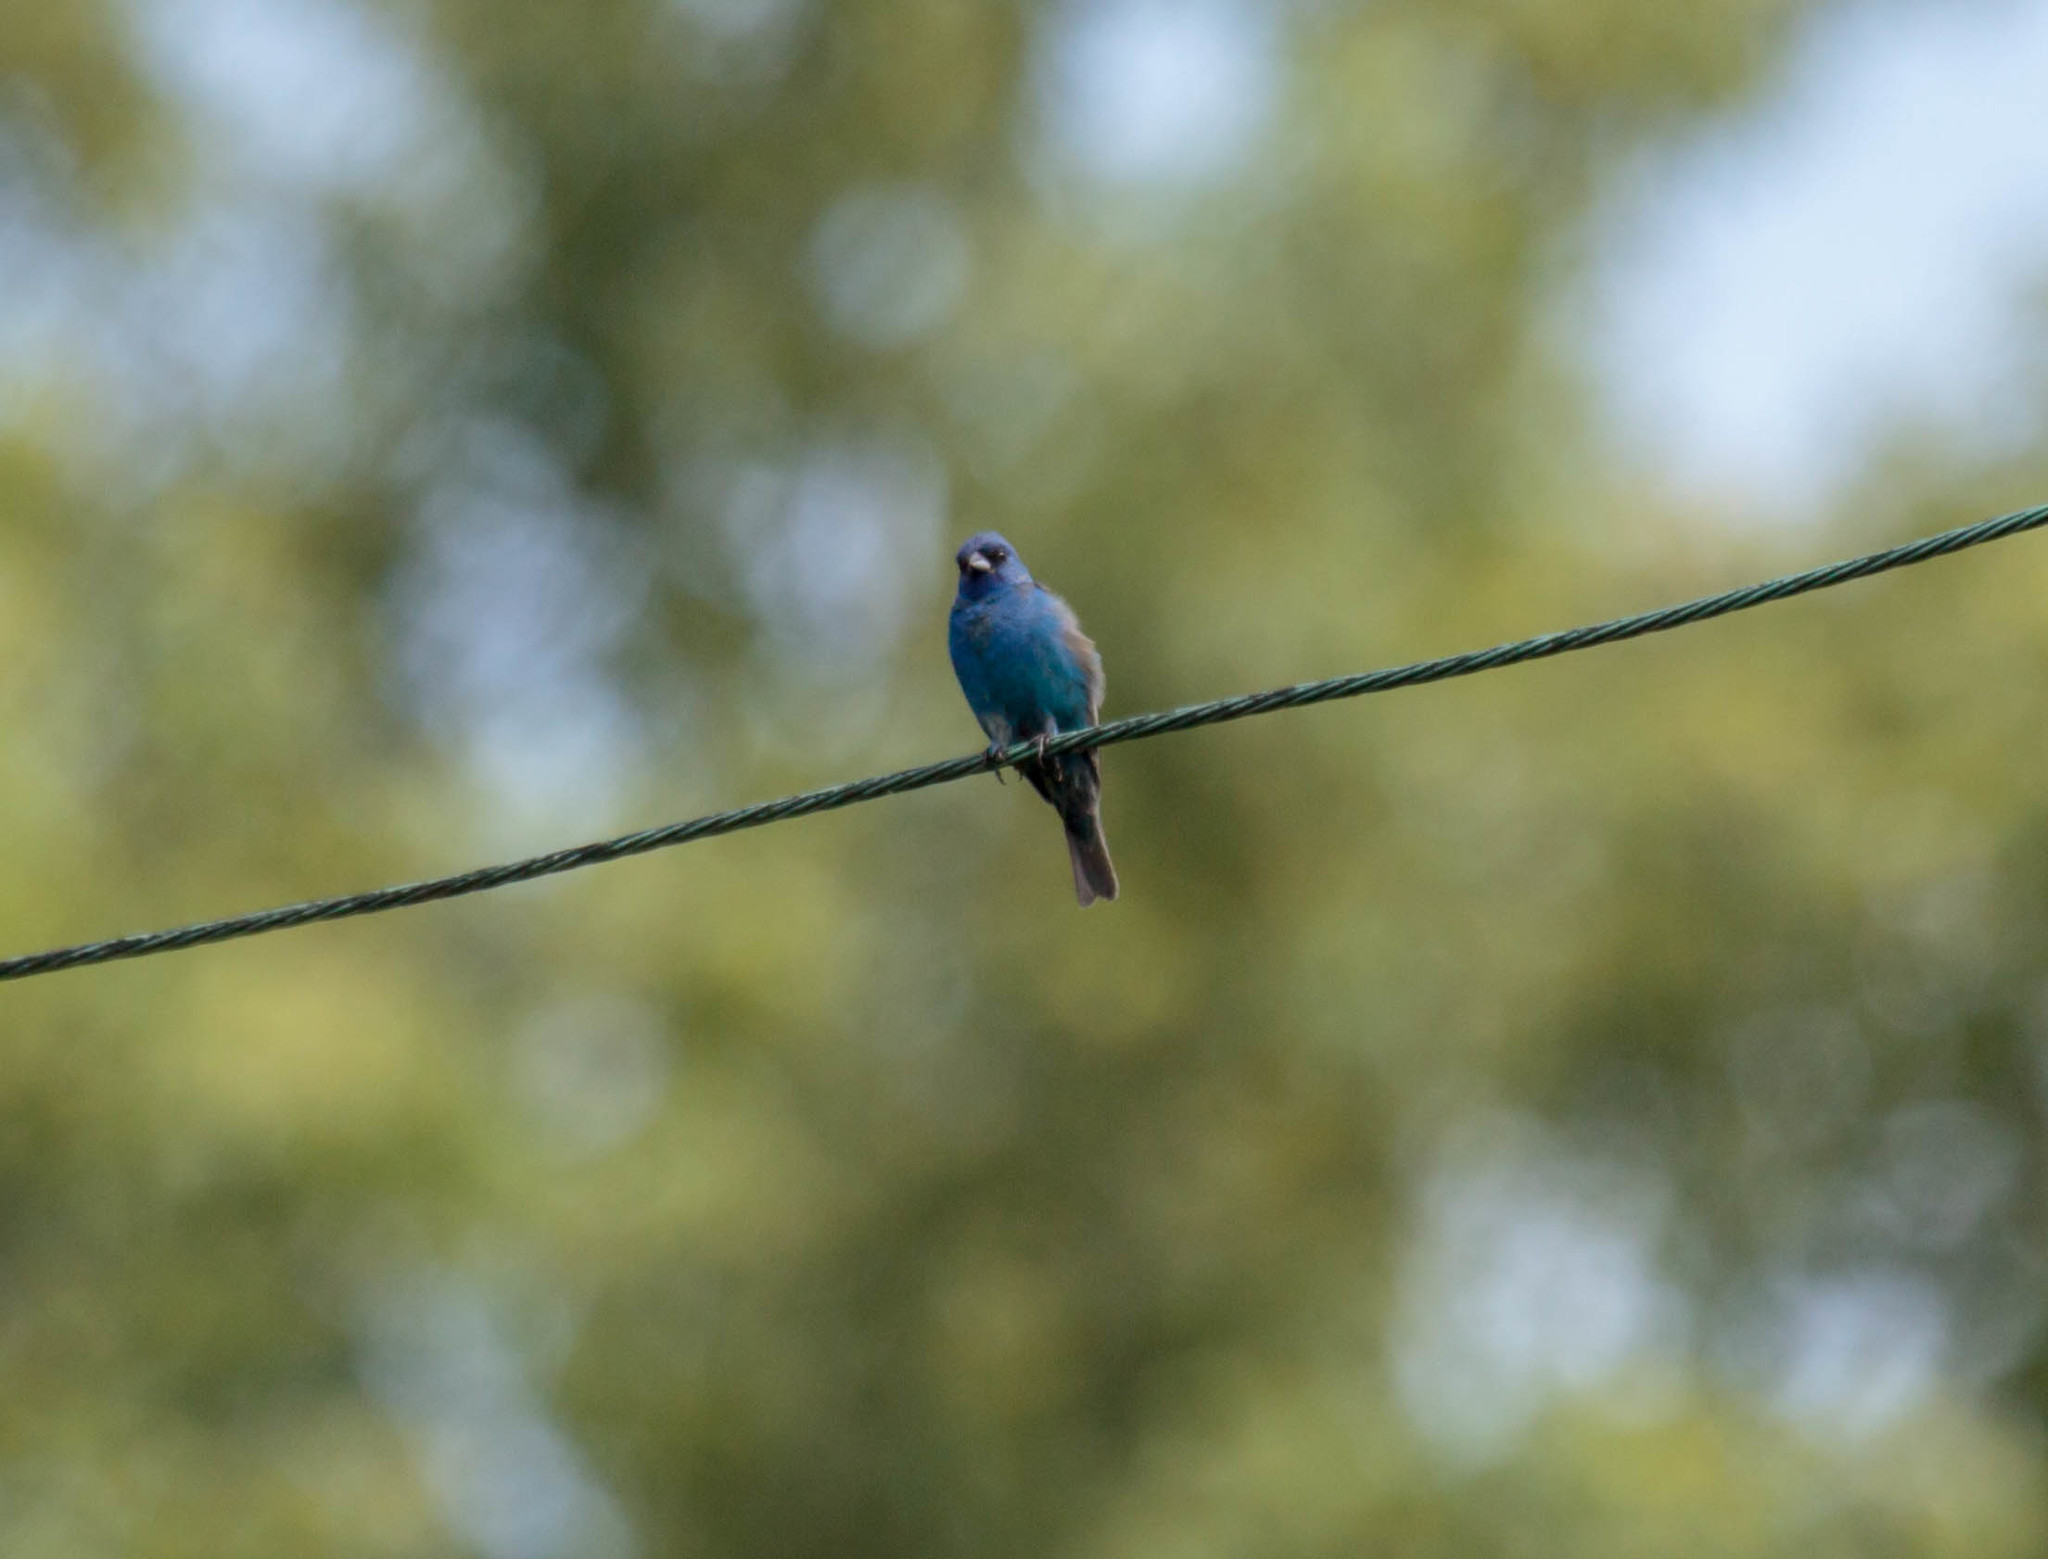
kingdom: Animalia
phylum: Chordata
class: Aves
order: Passeriformes
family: Cardinalidae
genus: Passerina
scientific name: Passerina cyanea
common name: Indigo bunting
